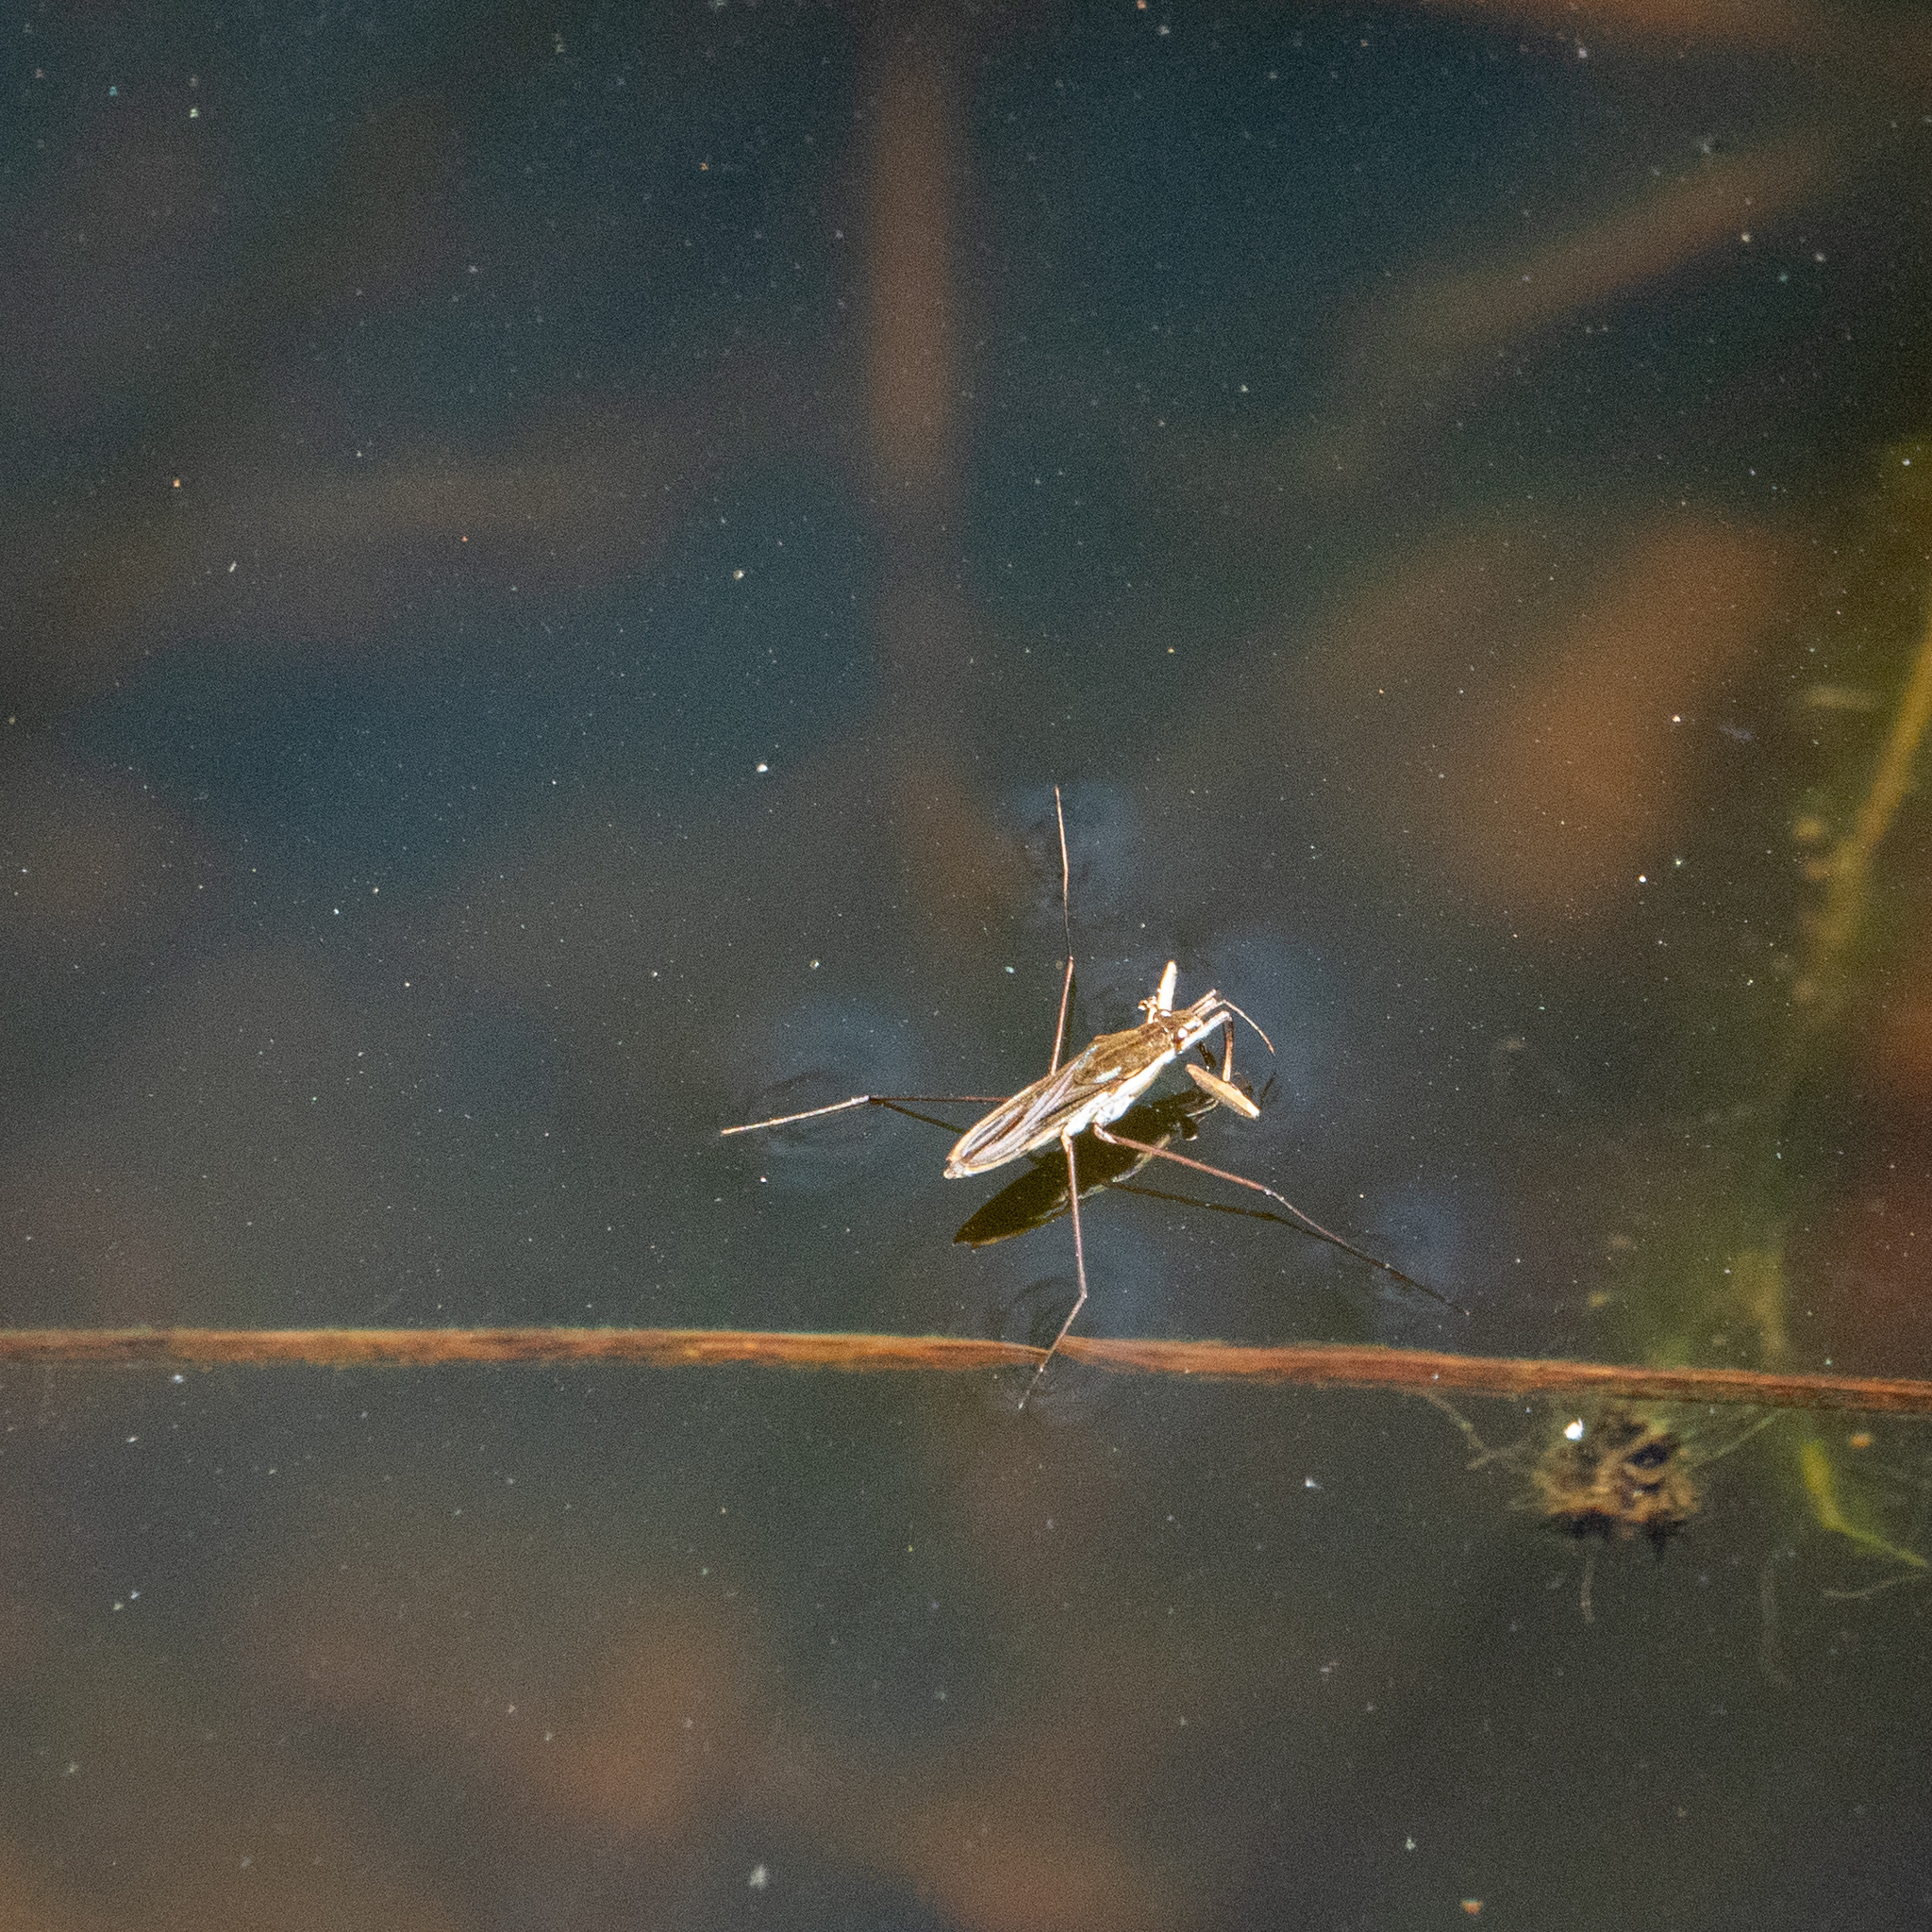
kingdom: Animalia
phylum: Arthropoda
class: Insecta
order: Hemiptera
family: Gerridae
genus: Gerris
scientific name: Gerris
